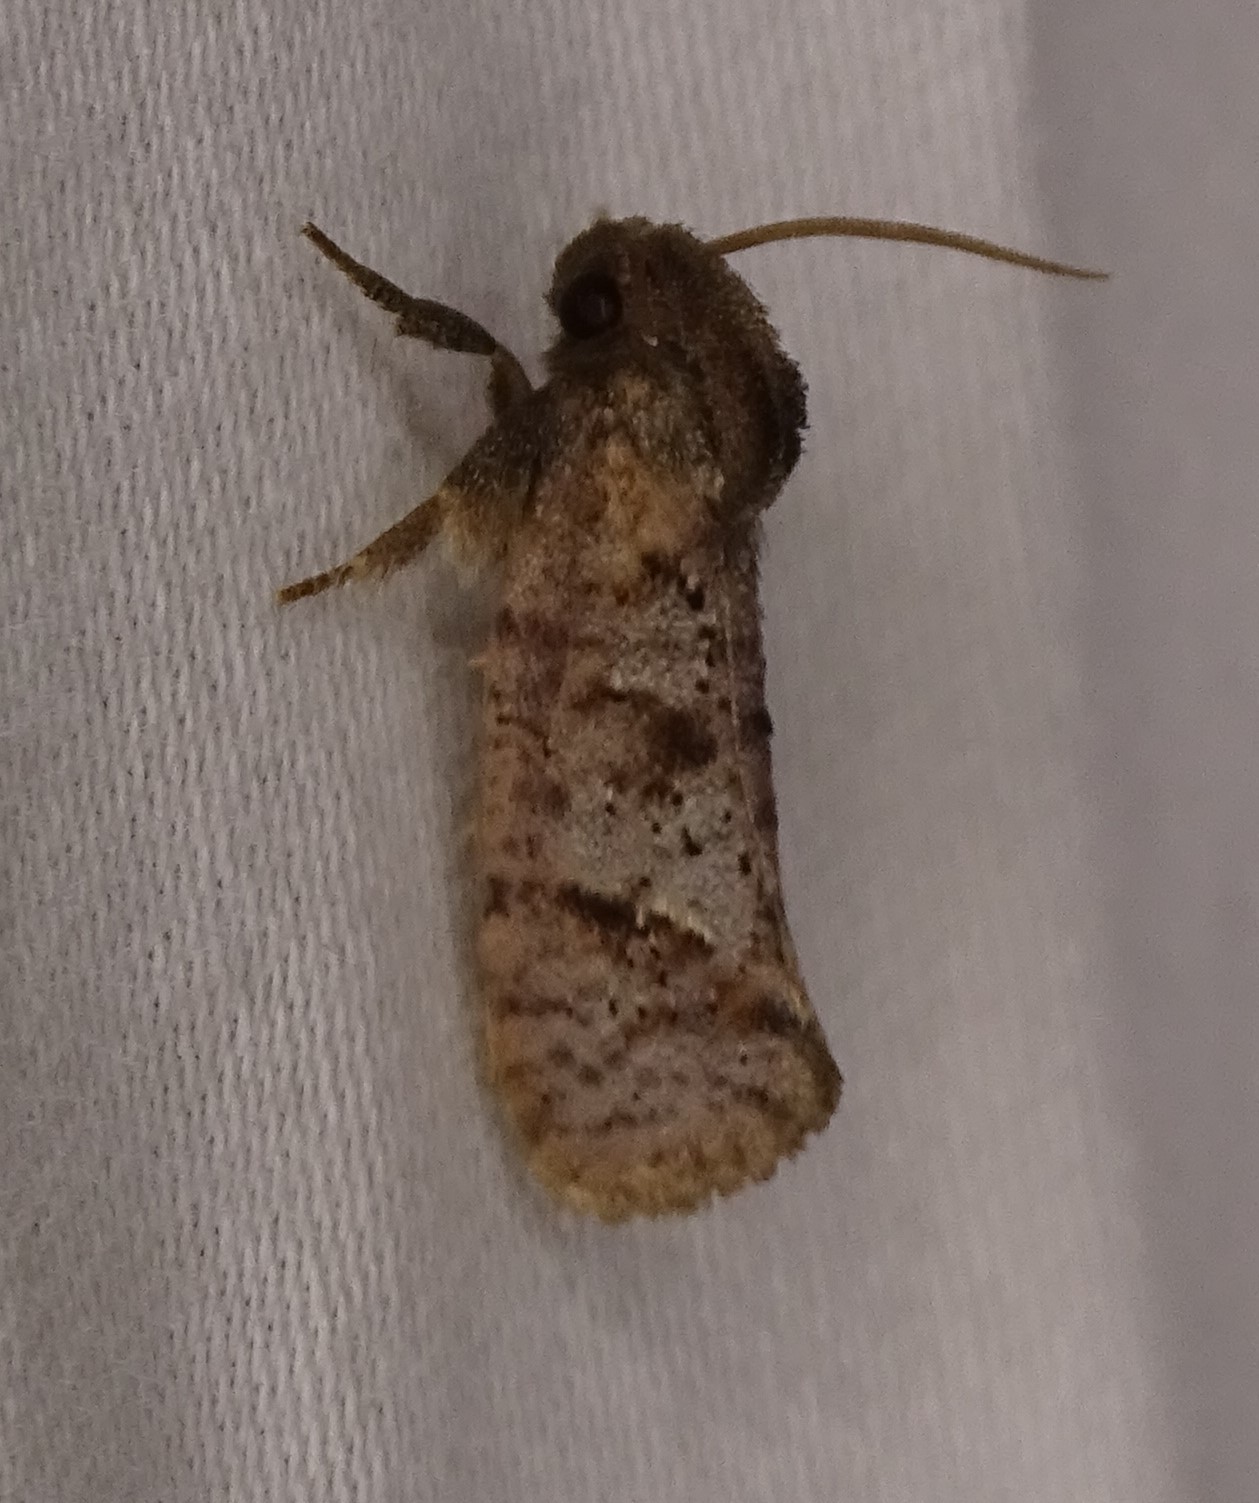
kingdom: Animalia
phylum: Arthropoda
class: Insecta
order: Lepidoptera
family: Tineidae
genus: Acrolophus
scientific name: Acrolophus texanella
